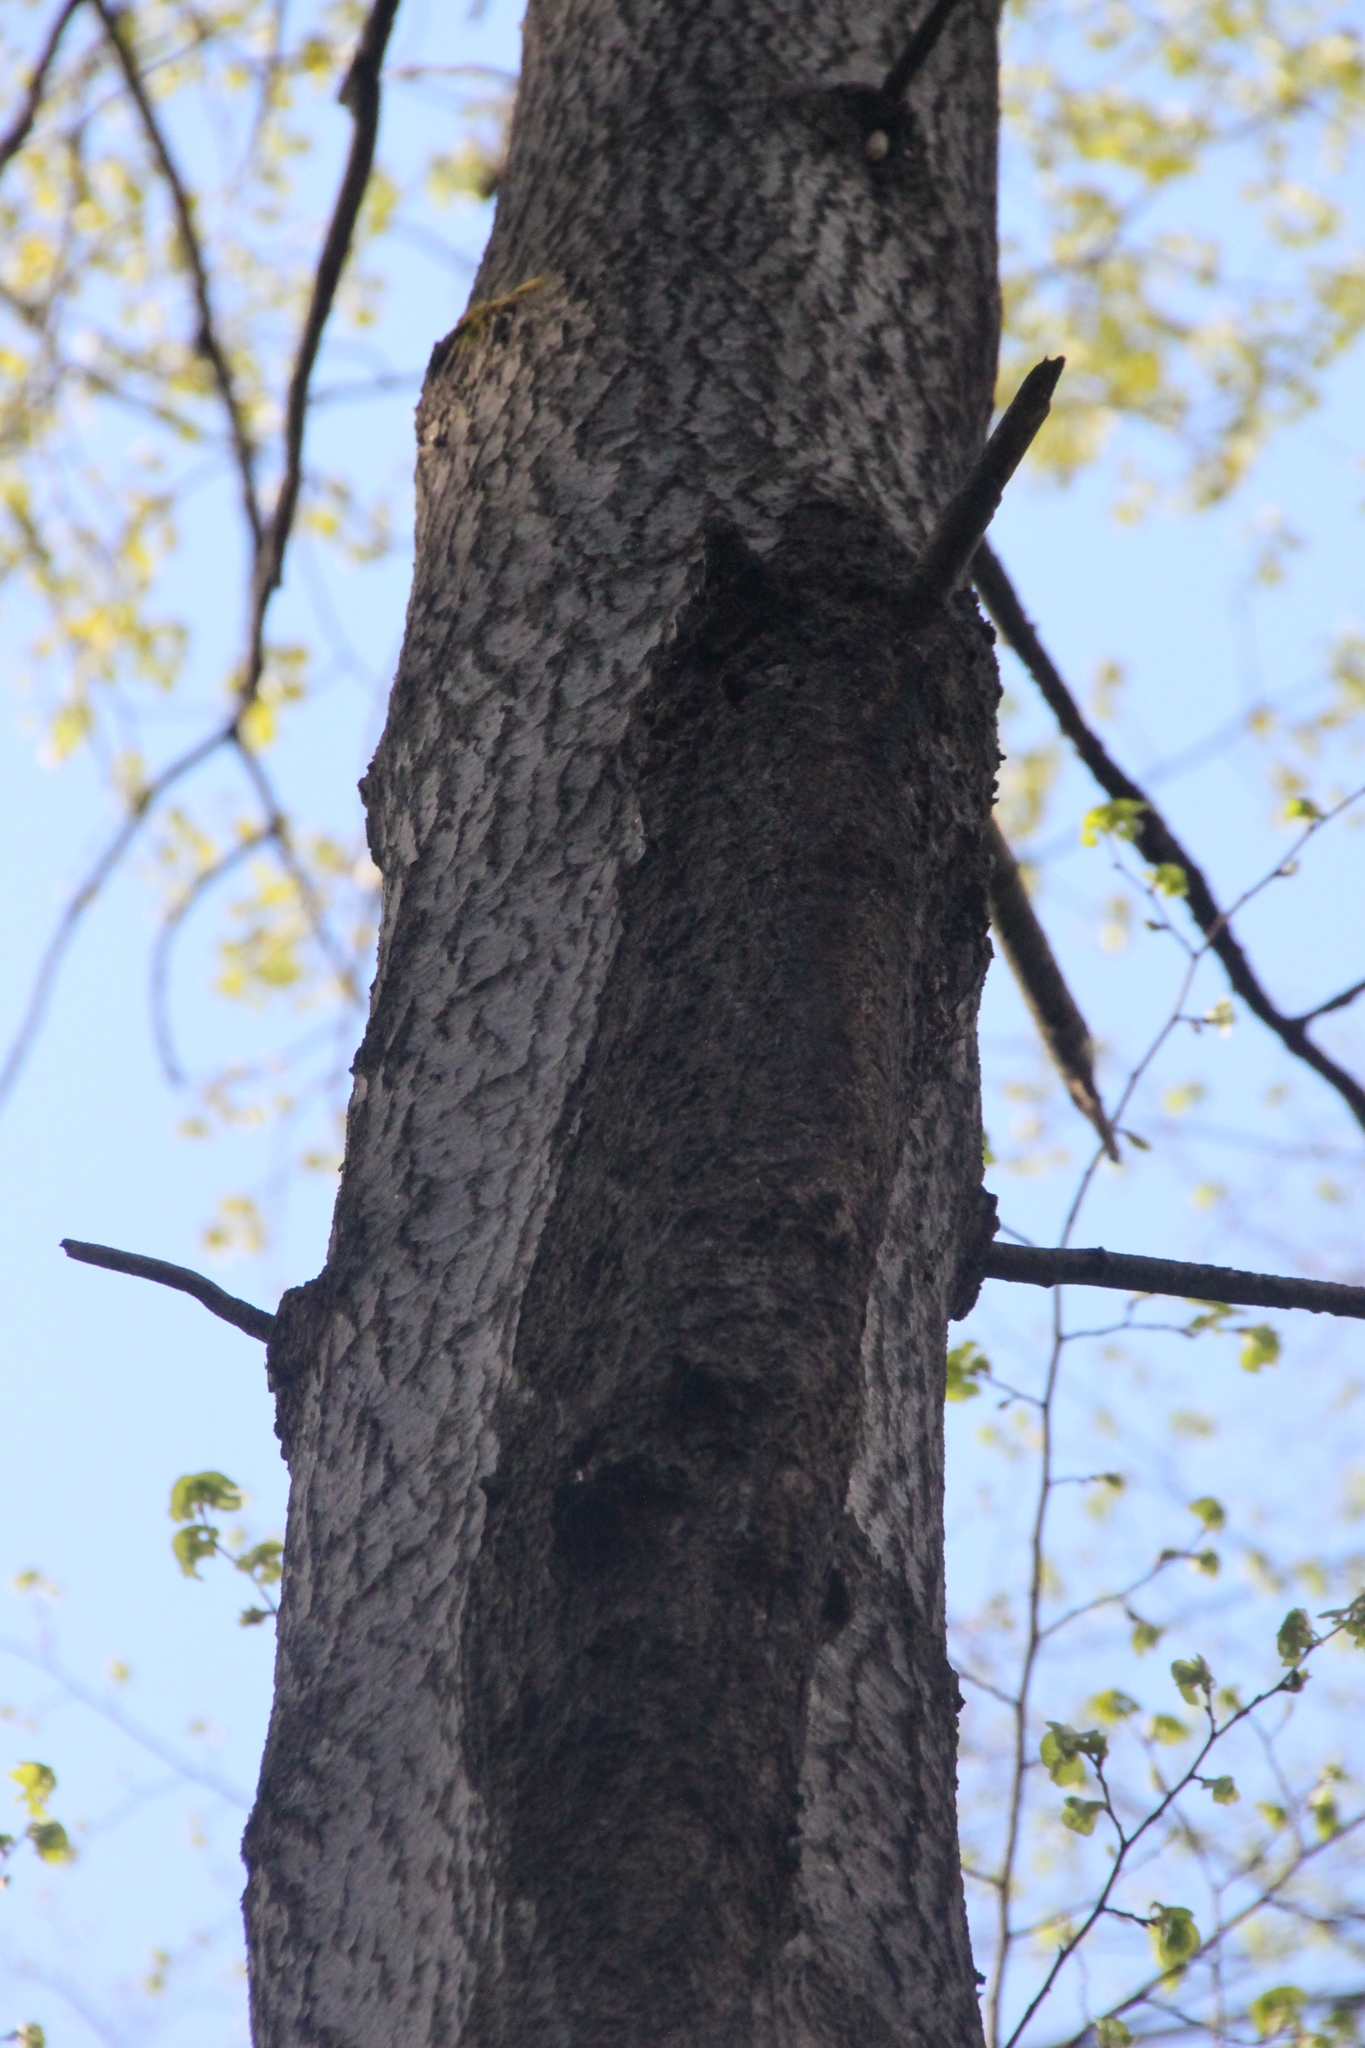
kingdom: Plantae
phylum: Tracheophyta
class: Magnoliopsida
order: Malpighiales
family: Salicaceae
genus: Populus
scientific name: Populus tremula
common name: European aspen
